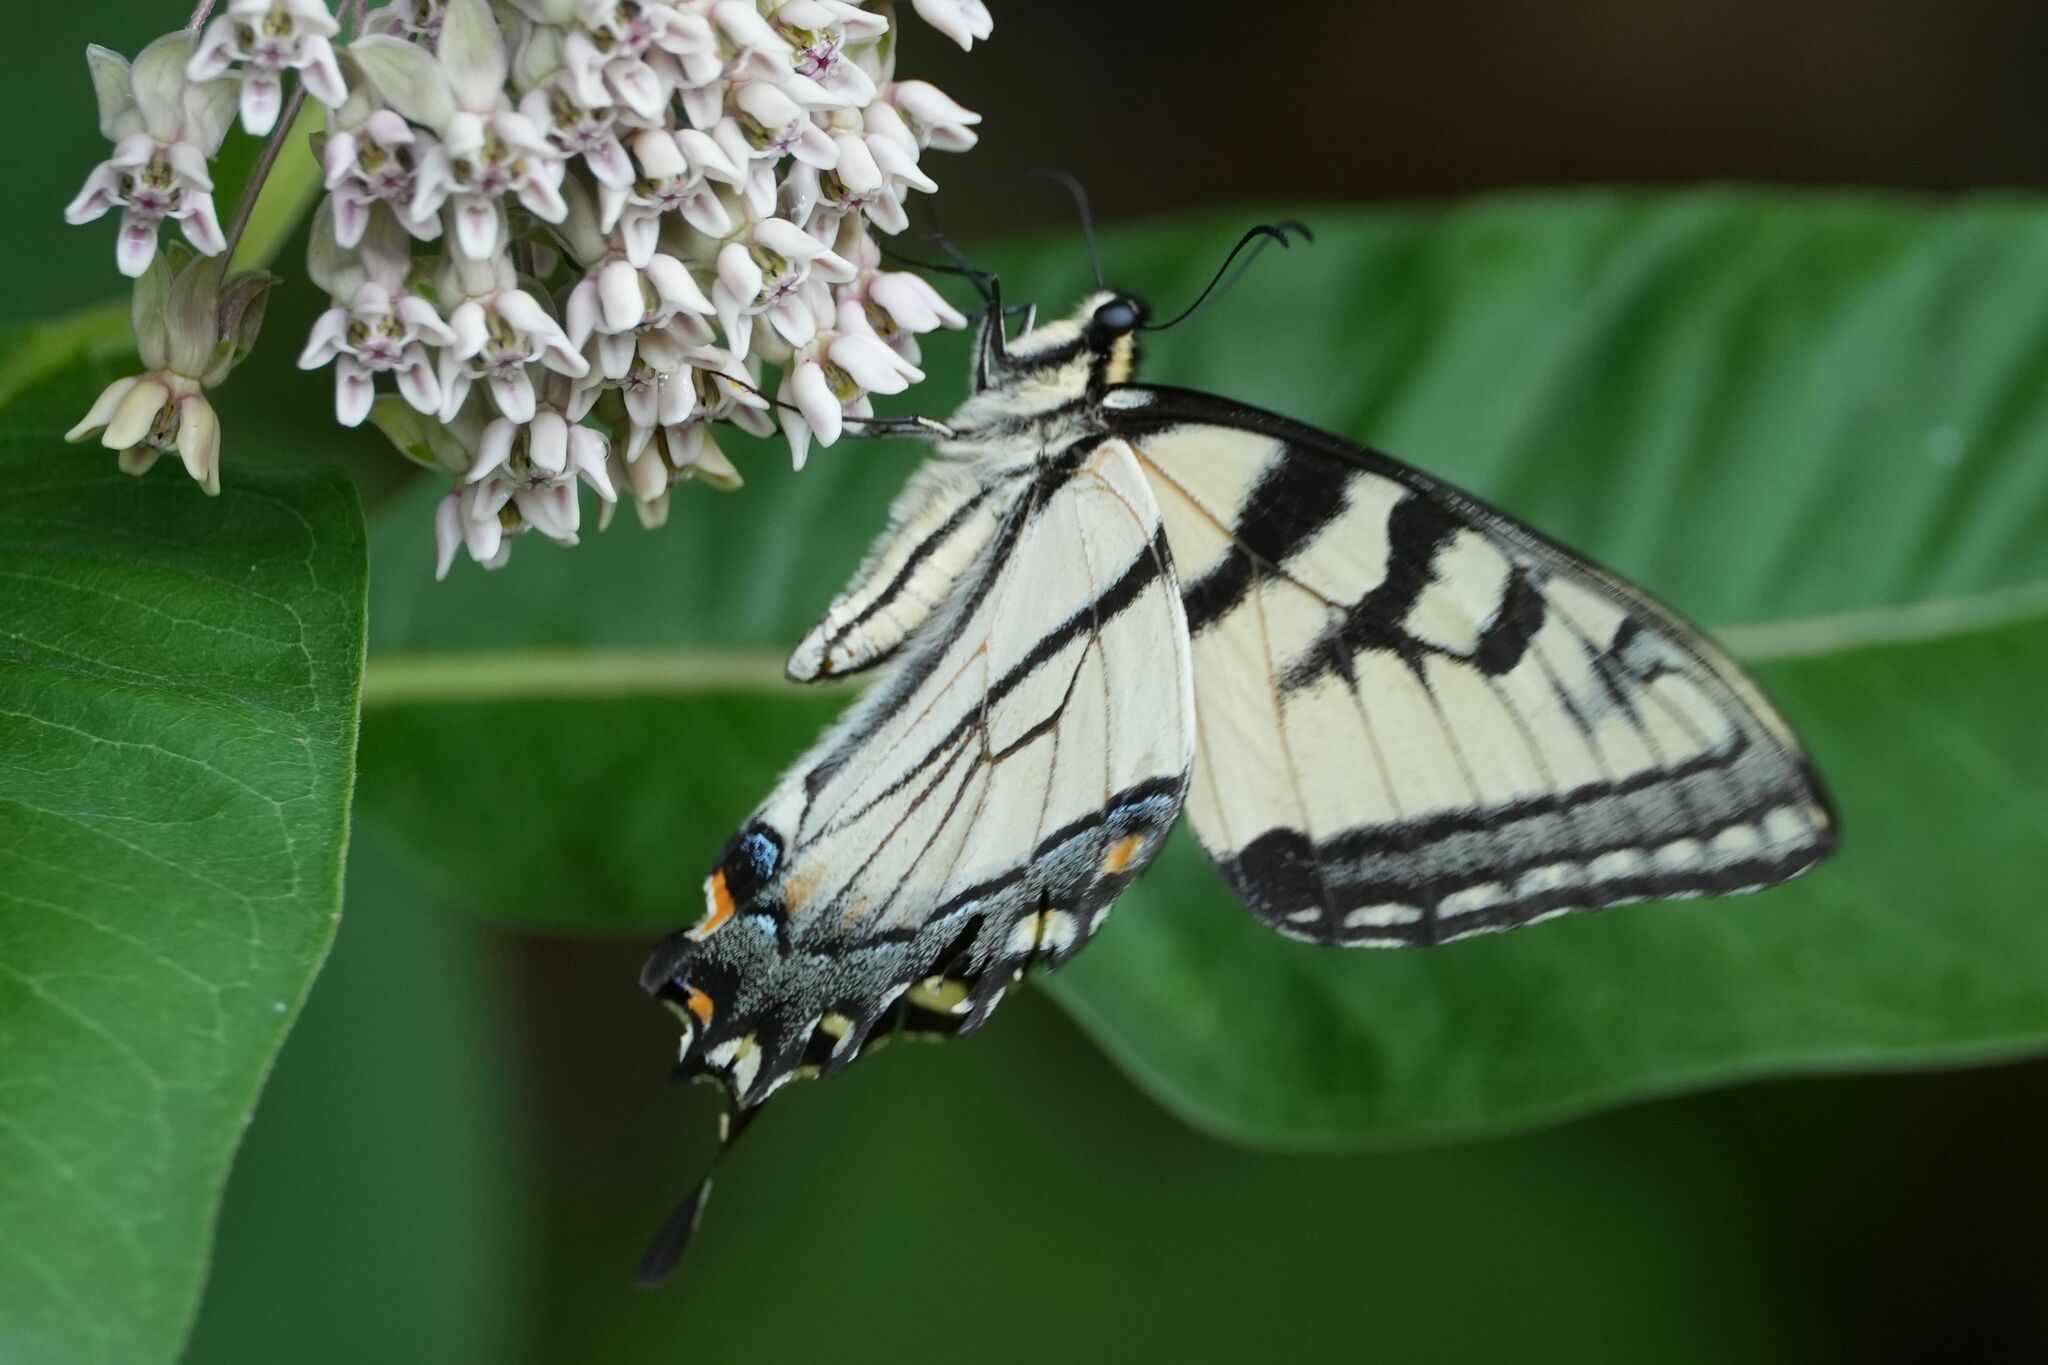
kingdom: Animalia
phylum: Arthropoda
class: Insecta
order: Lepidoptera
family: Papilionidae
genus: Papilio
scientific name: Papilio
